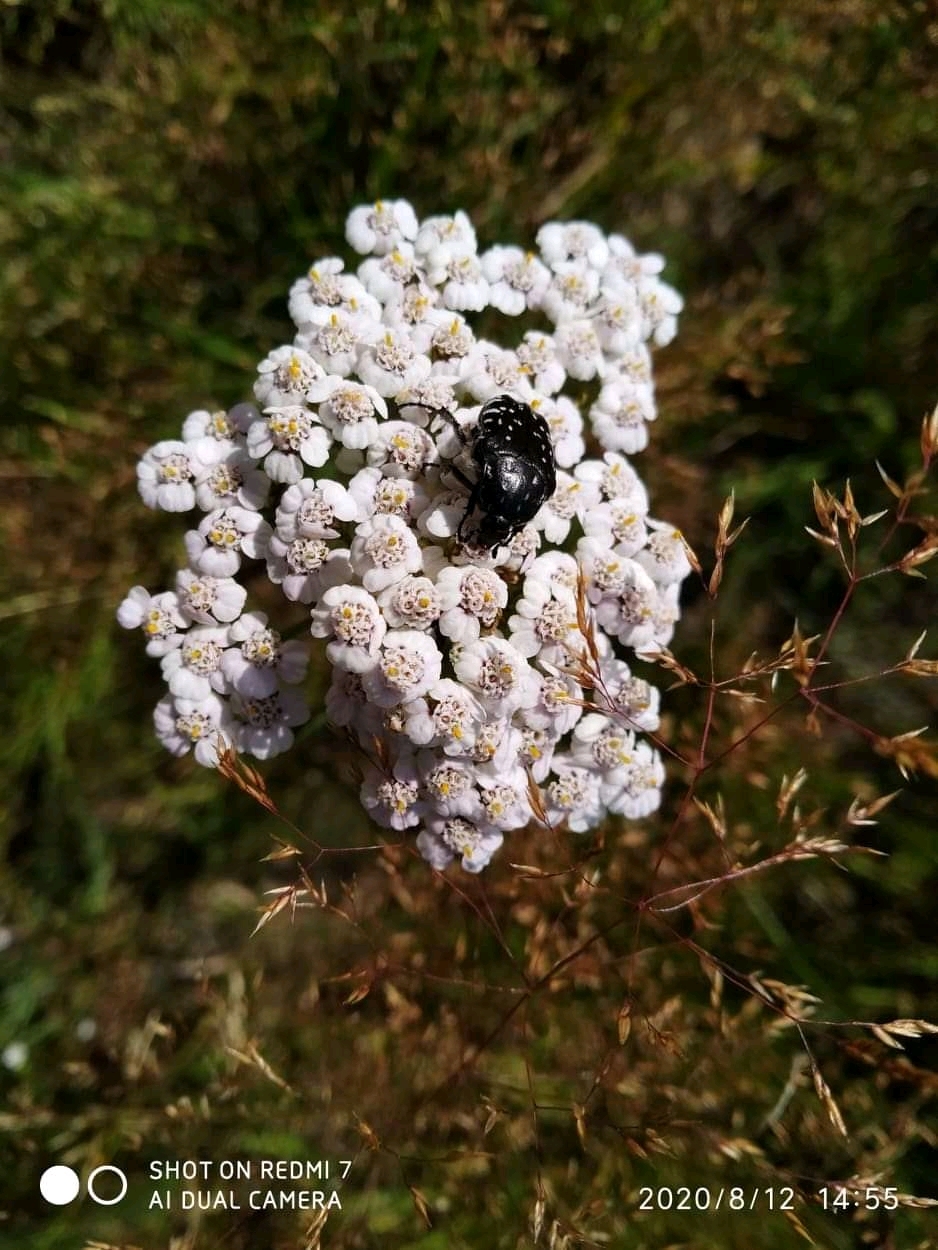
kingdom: Animalia
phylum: Arthropoda
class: Insecta
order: Coleoptera
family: Scarabaeidae
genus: Oxythyrea
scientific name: Oxythyrea funesta
